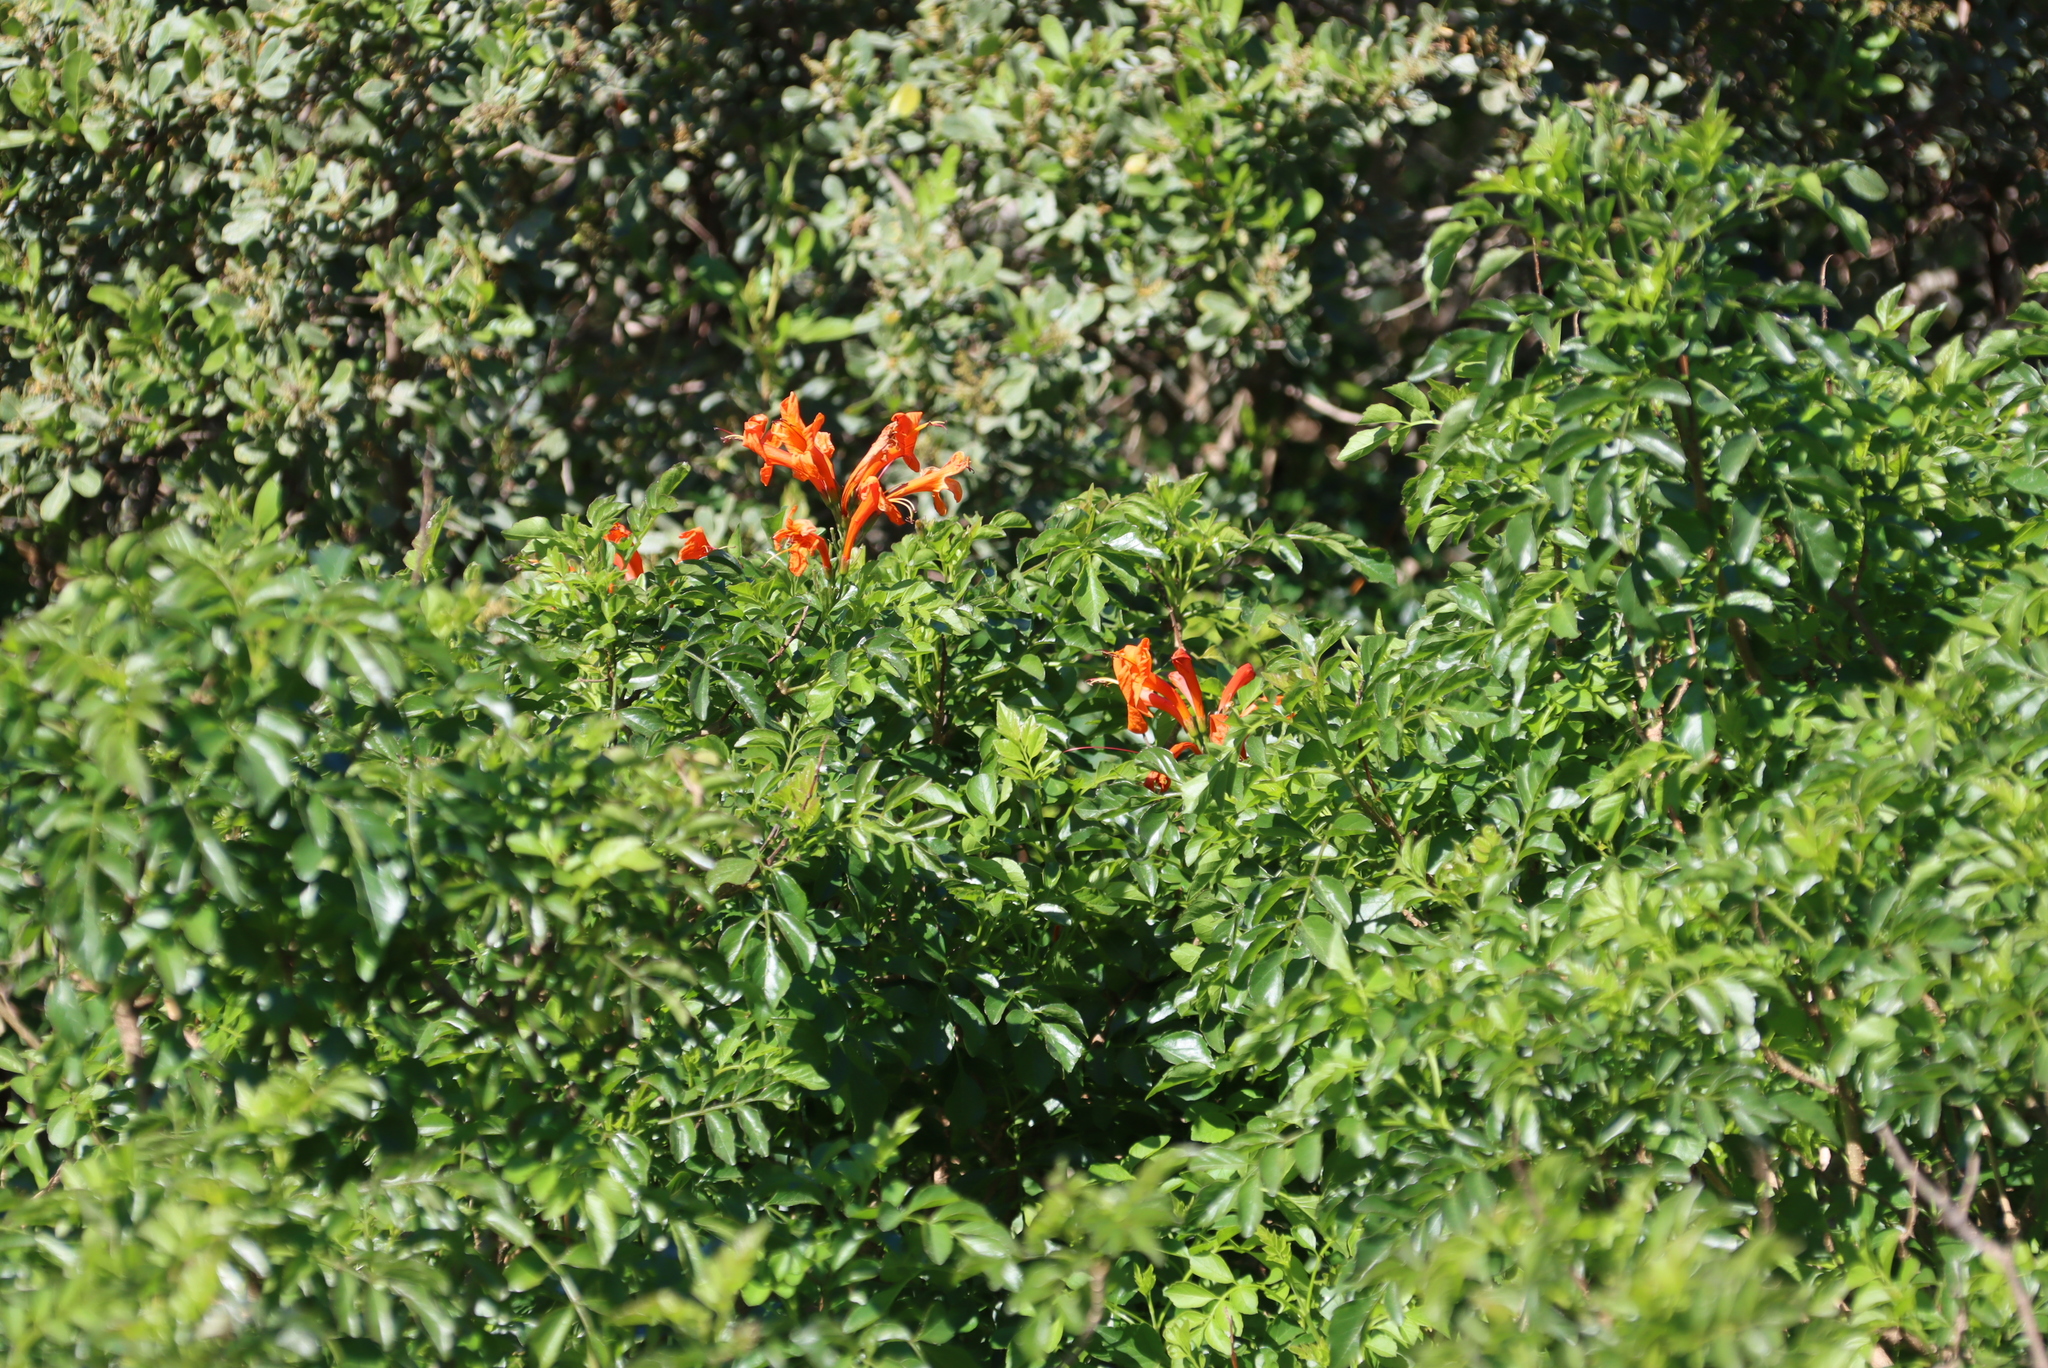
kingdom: Plantae
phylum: Tracheophyta
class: Magnoliopsida
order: Lamiales
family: Bignoniaceae
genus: Tecomaria
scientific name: Tecomaria capensis
